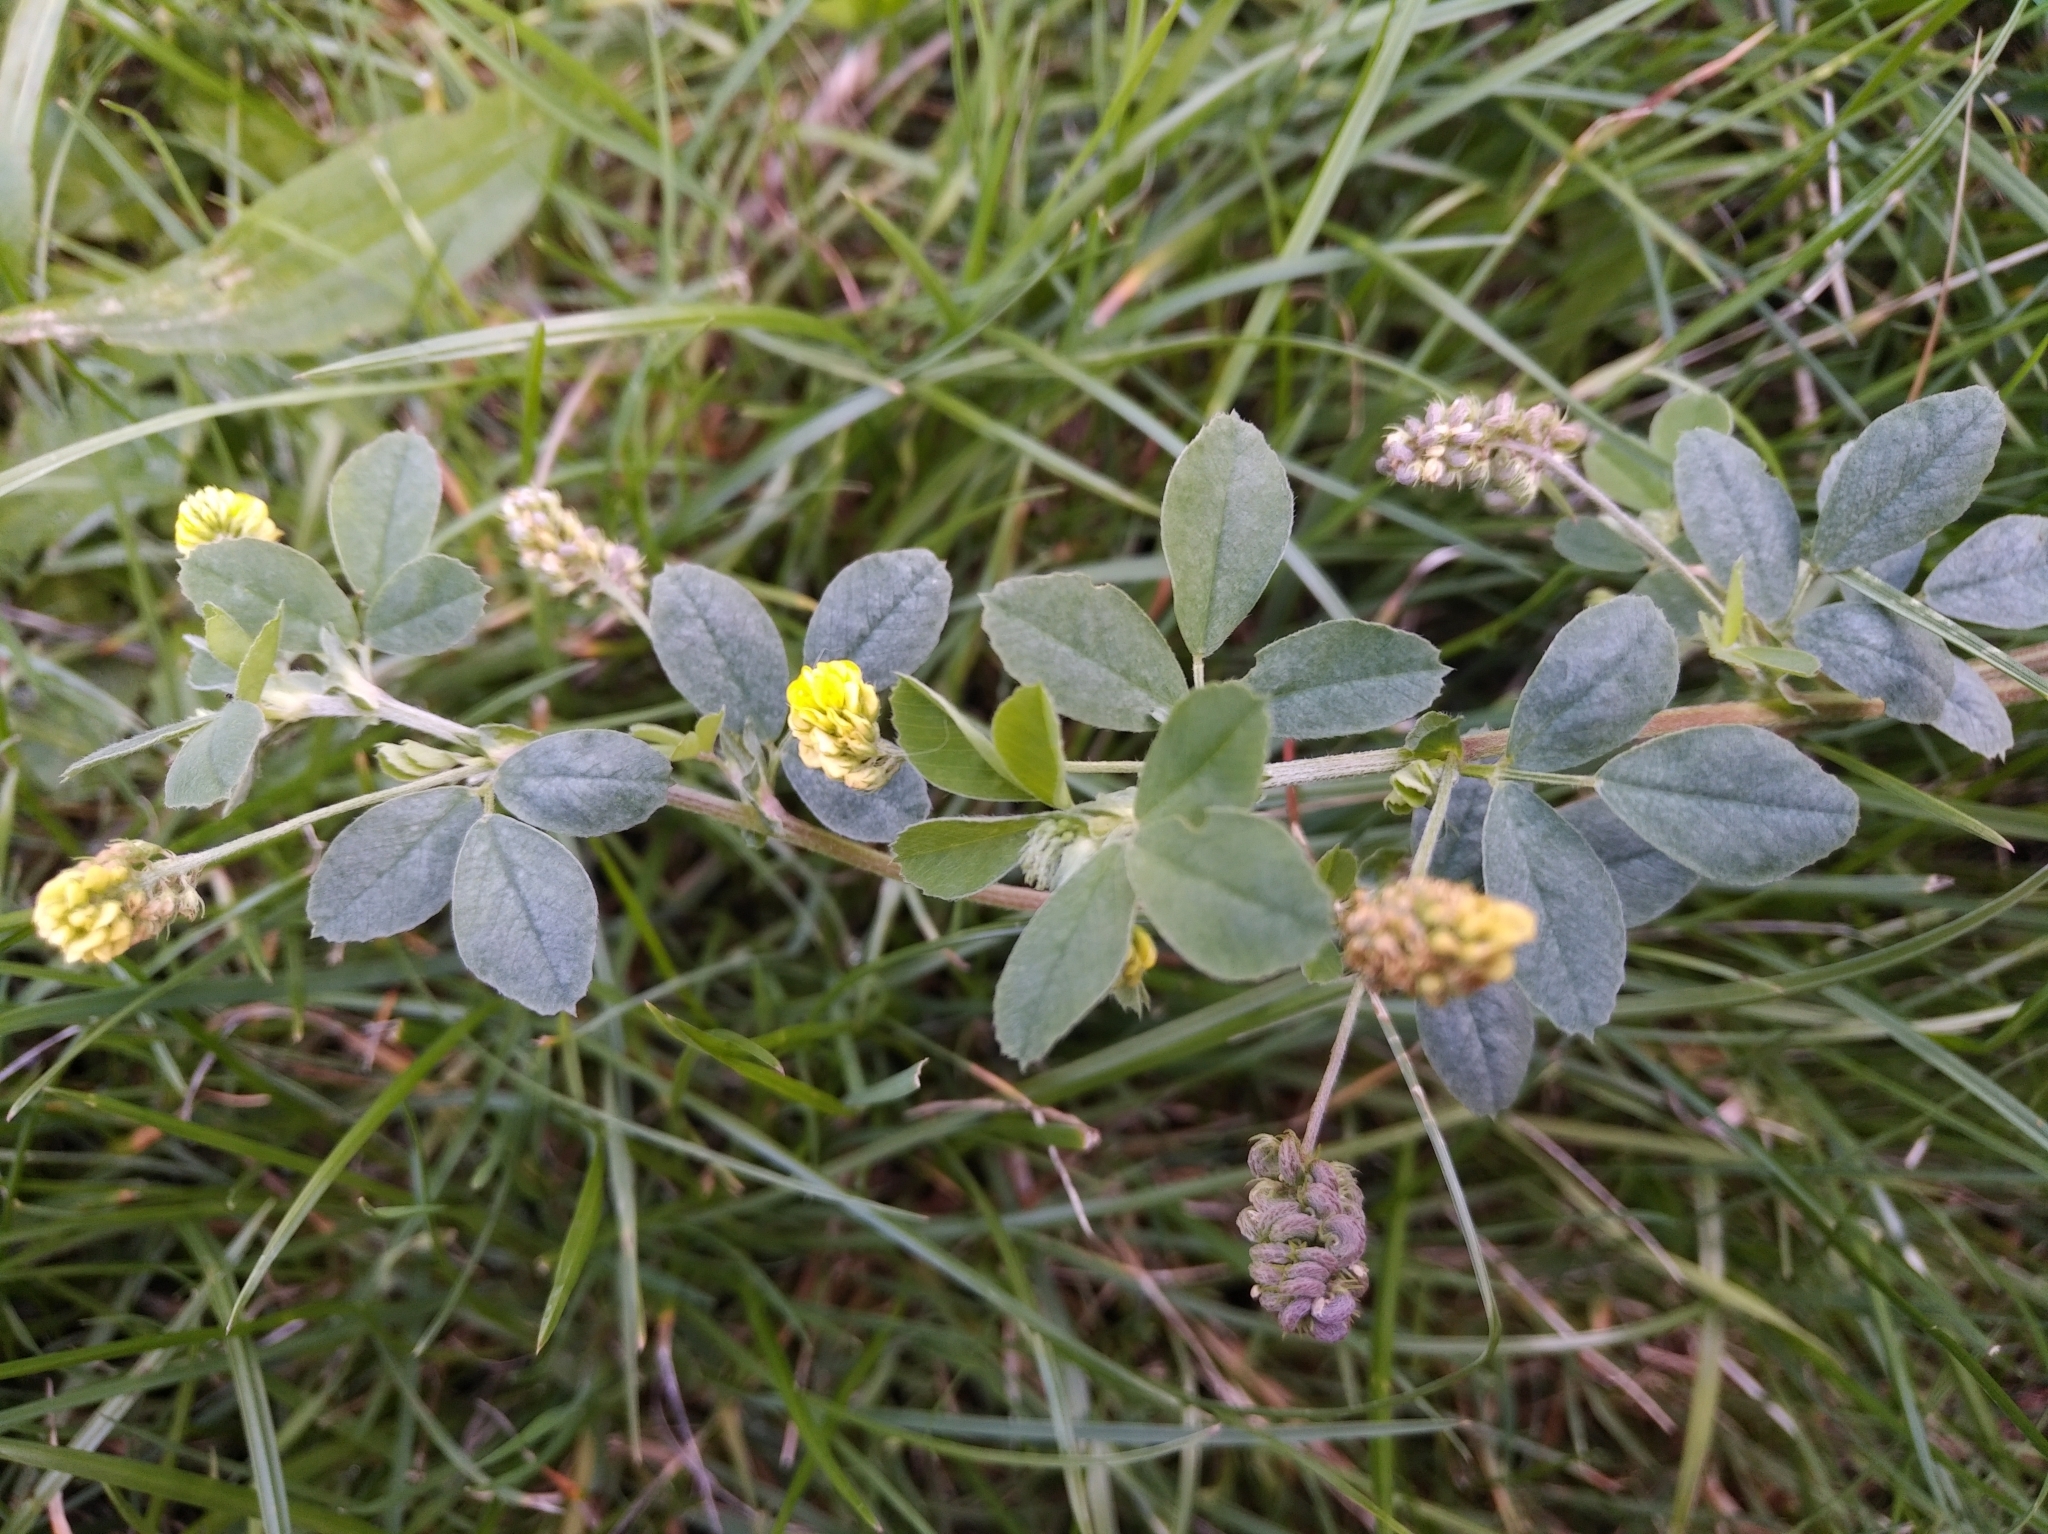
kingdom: Plantae
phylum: Tracheophyta
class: Magnoliopsida
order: Fabales
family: Fabaceae
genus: Medicago
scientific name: Medicago lupulina
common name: Black medick
